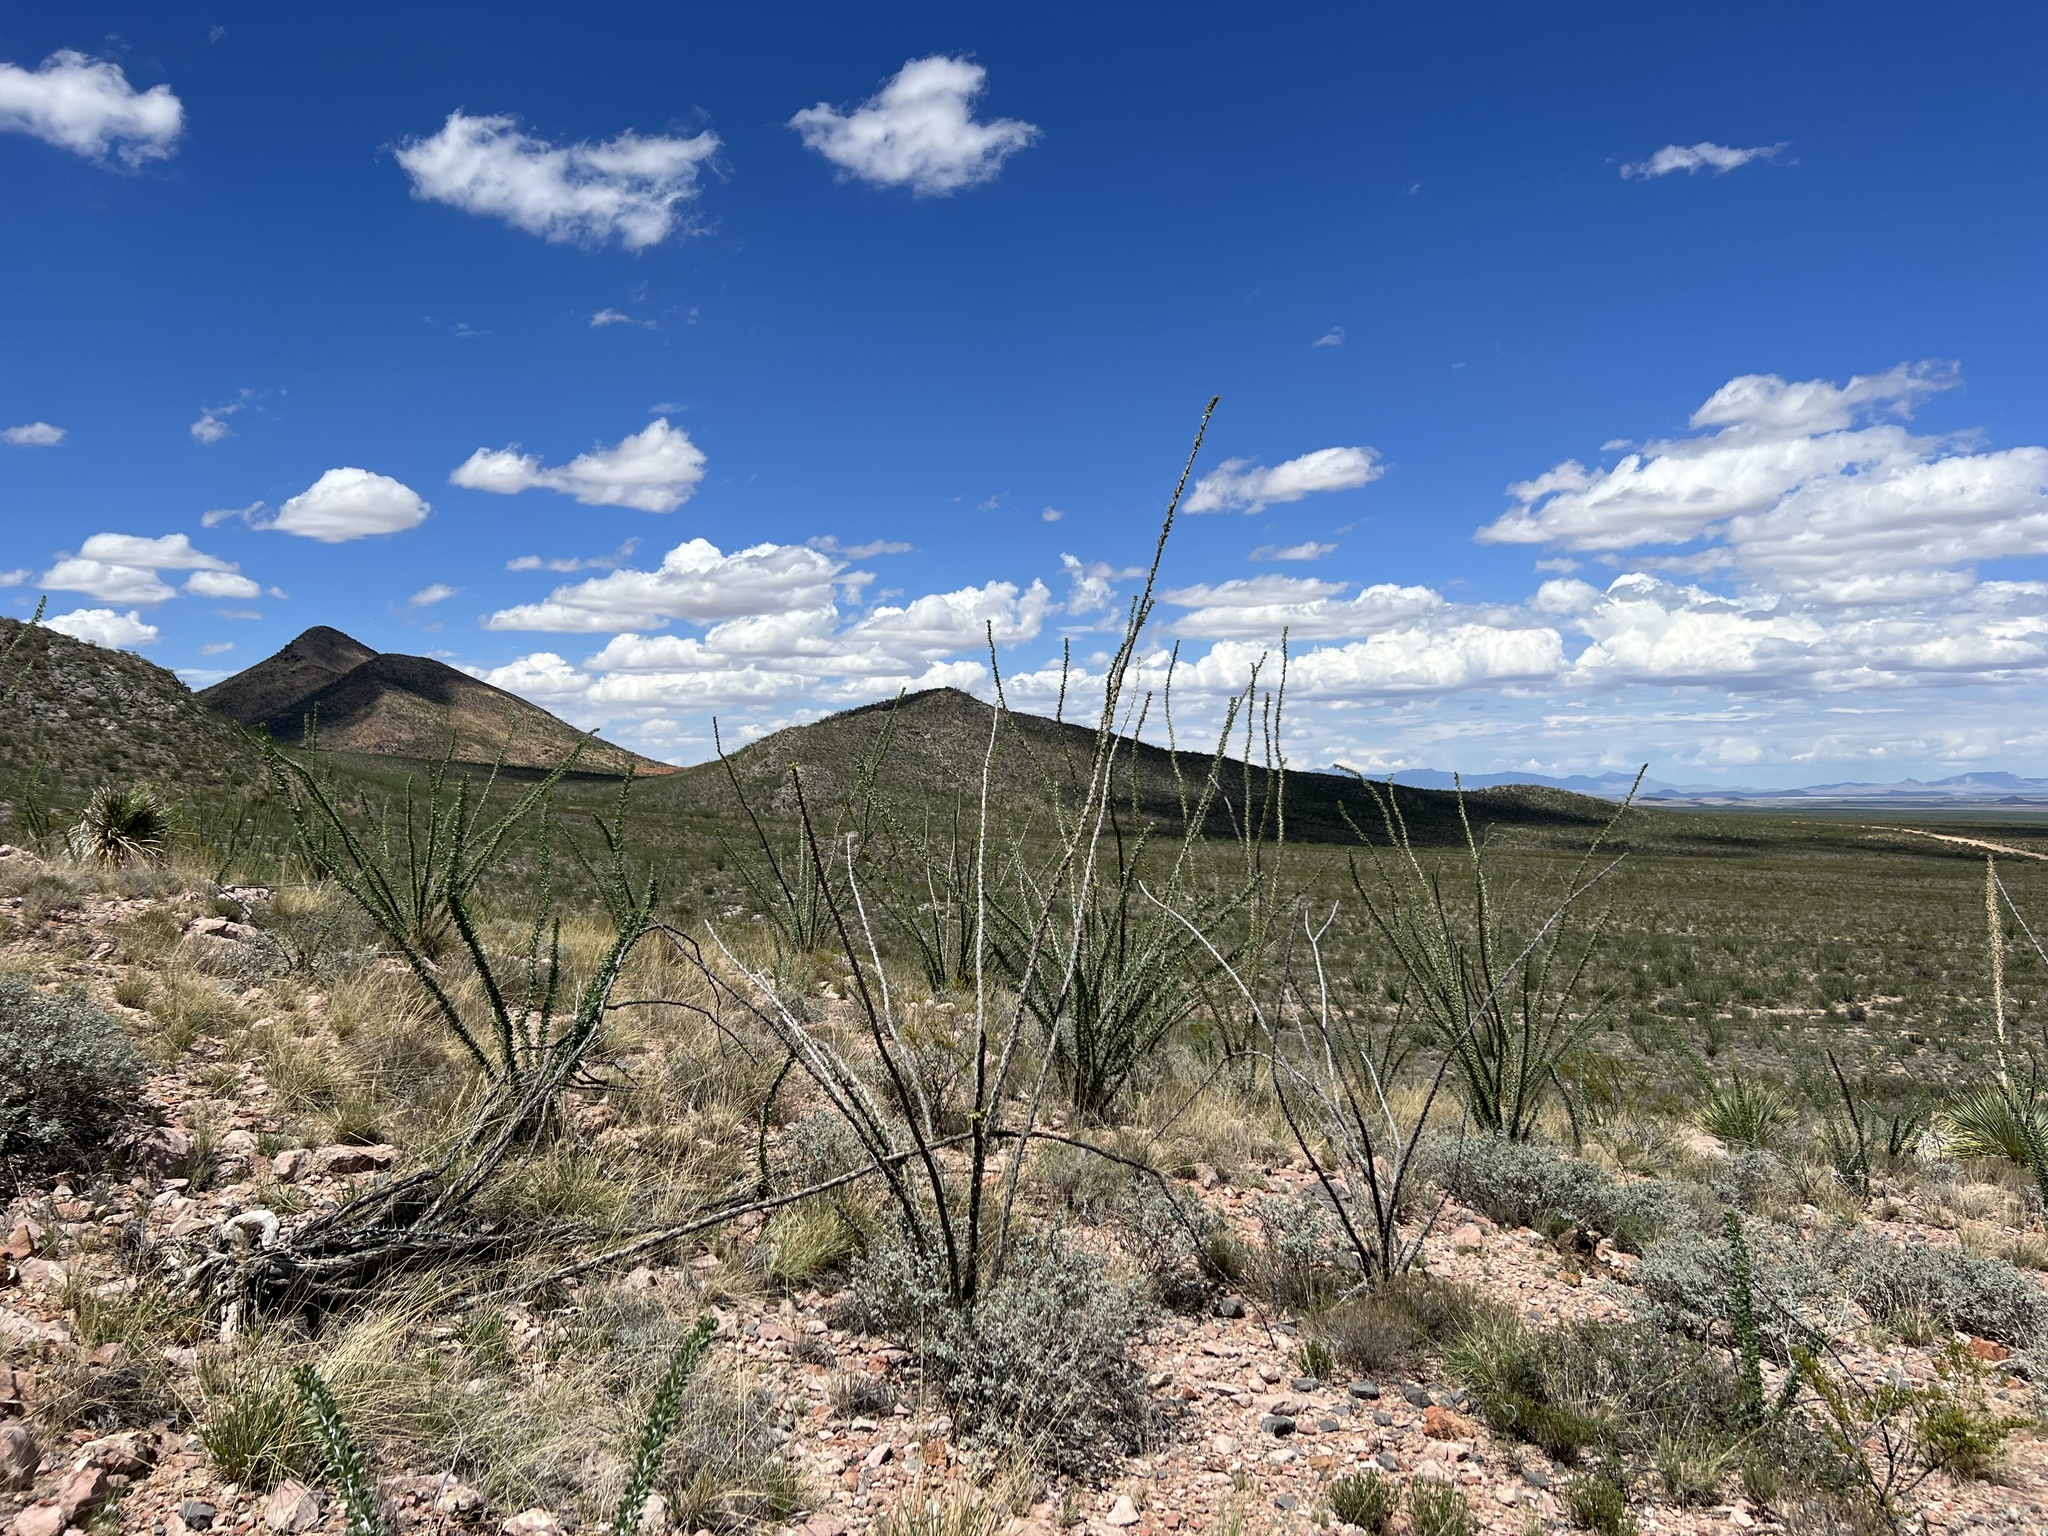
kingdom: Plantae
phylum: Tracheophyta
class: Magnoliopsida
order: Ericales
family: Fouquieriaceae
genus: Fouquieria
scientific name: Fouquieria splendens
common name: Vine-cactus
